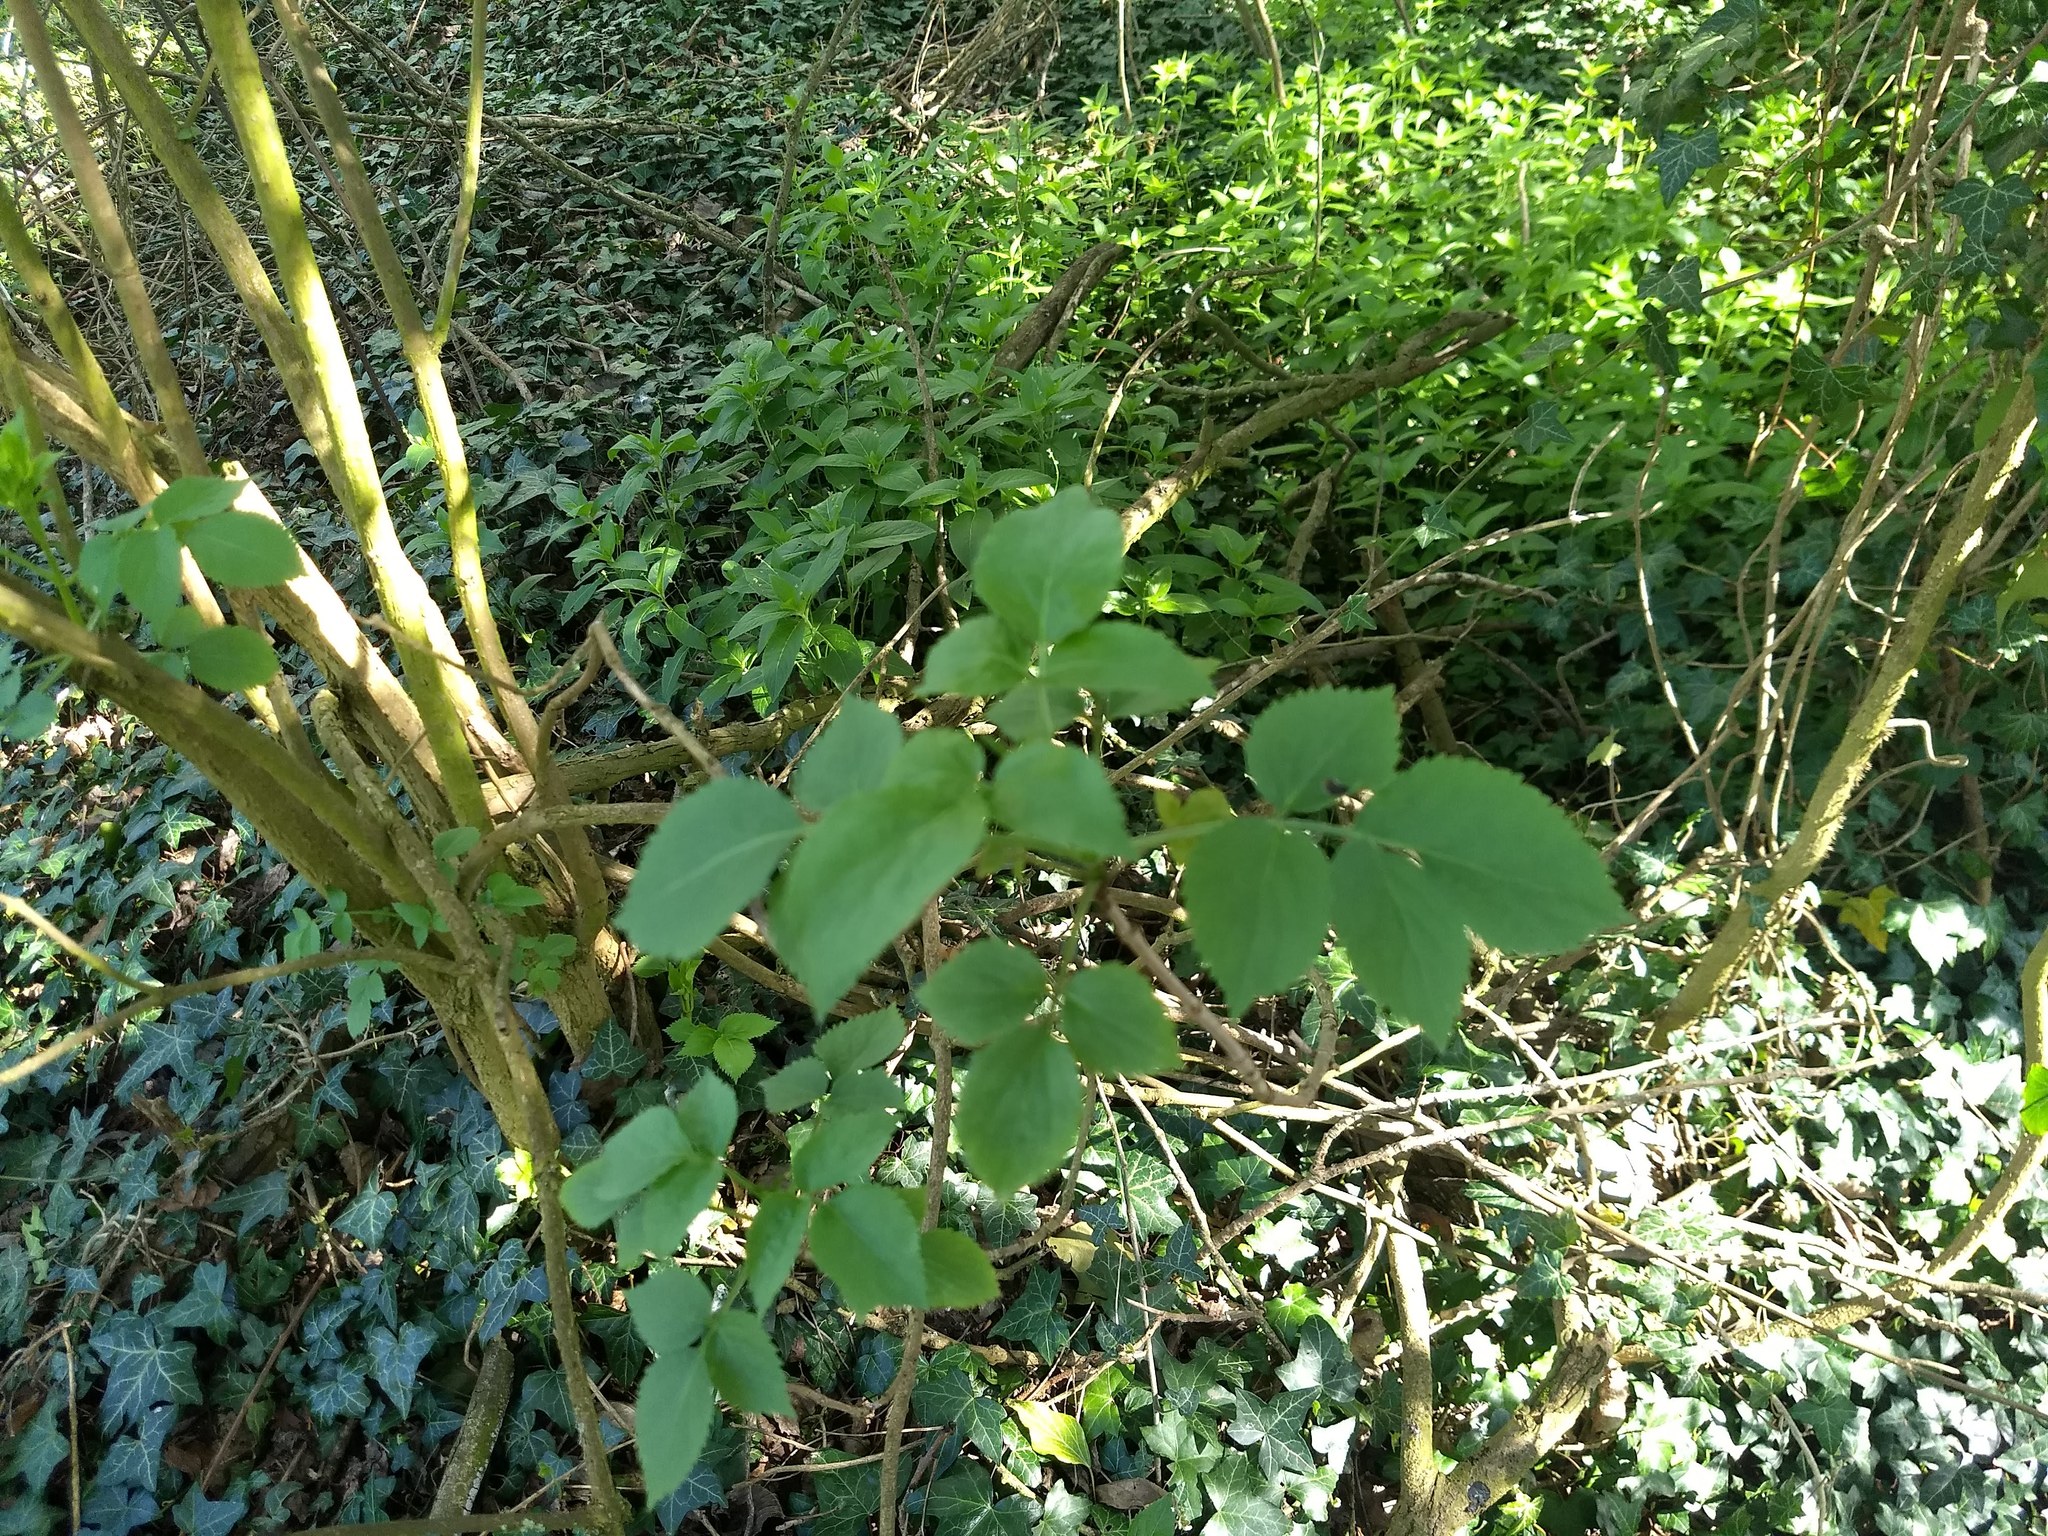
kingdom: Plantae
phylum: Tracheophyta
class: Magnoliopsida
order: Dipsacales
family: Viburnaceae
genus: Sambucus
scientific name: Sambucus nigra
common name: Elder
